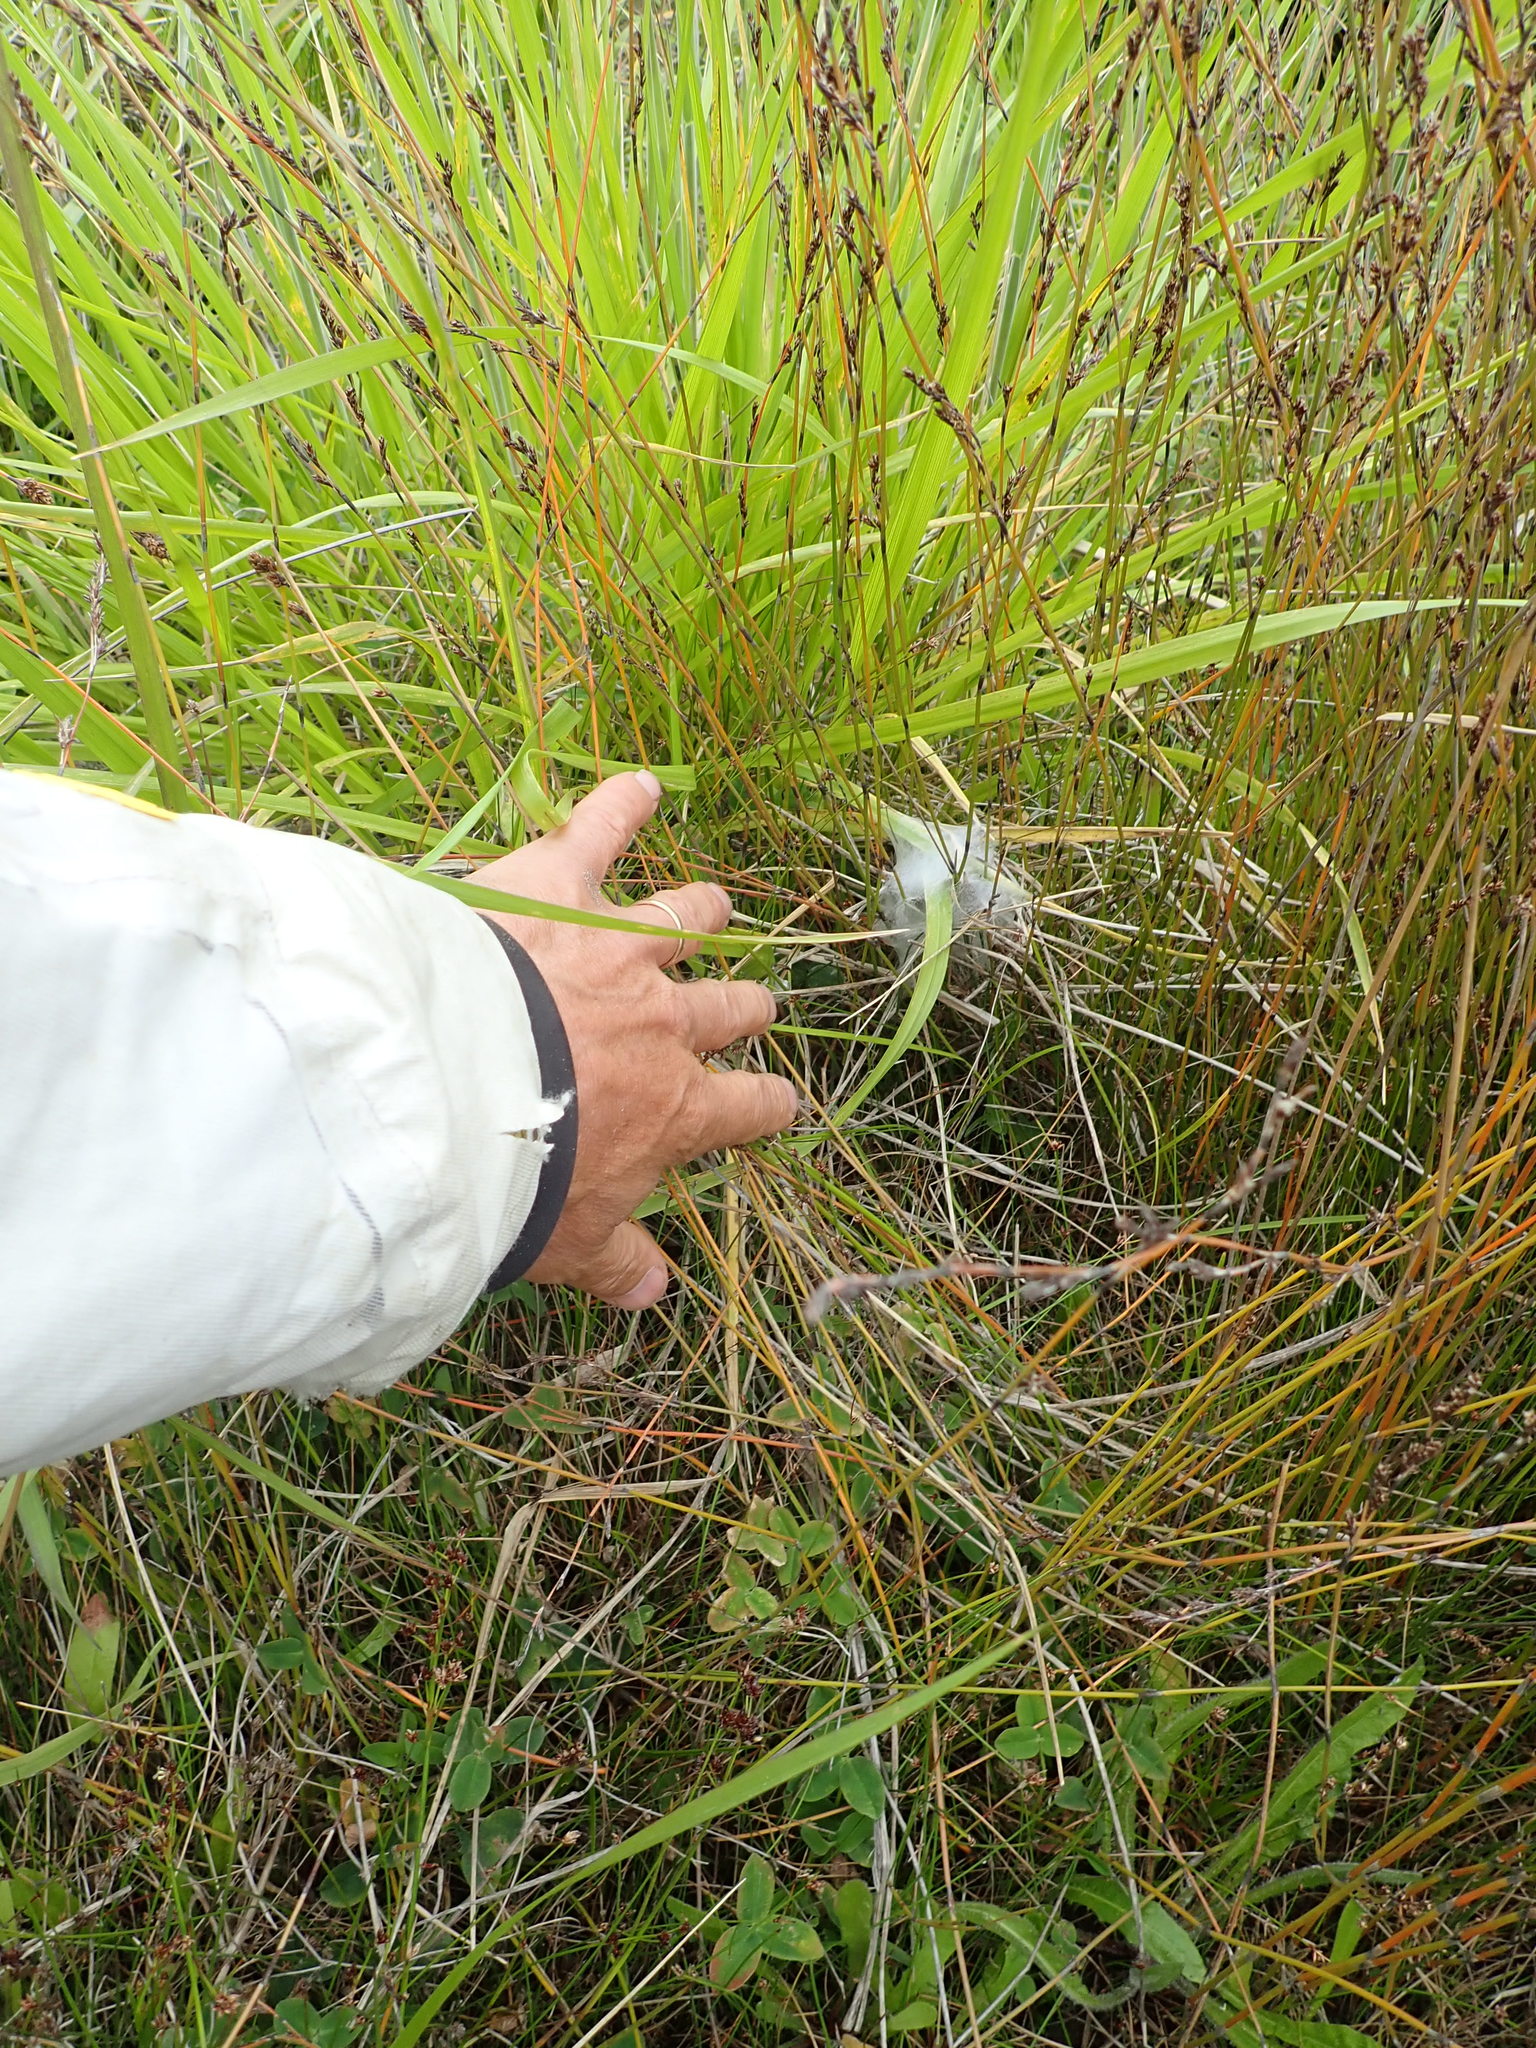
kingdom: Animalia
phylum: Arthropoda
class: Arachnida
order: Araneae
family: Pisauridae
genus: Dolomedes
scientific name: Dolomedes minor
